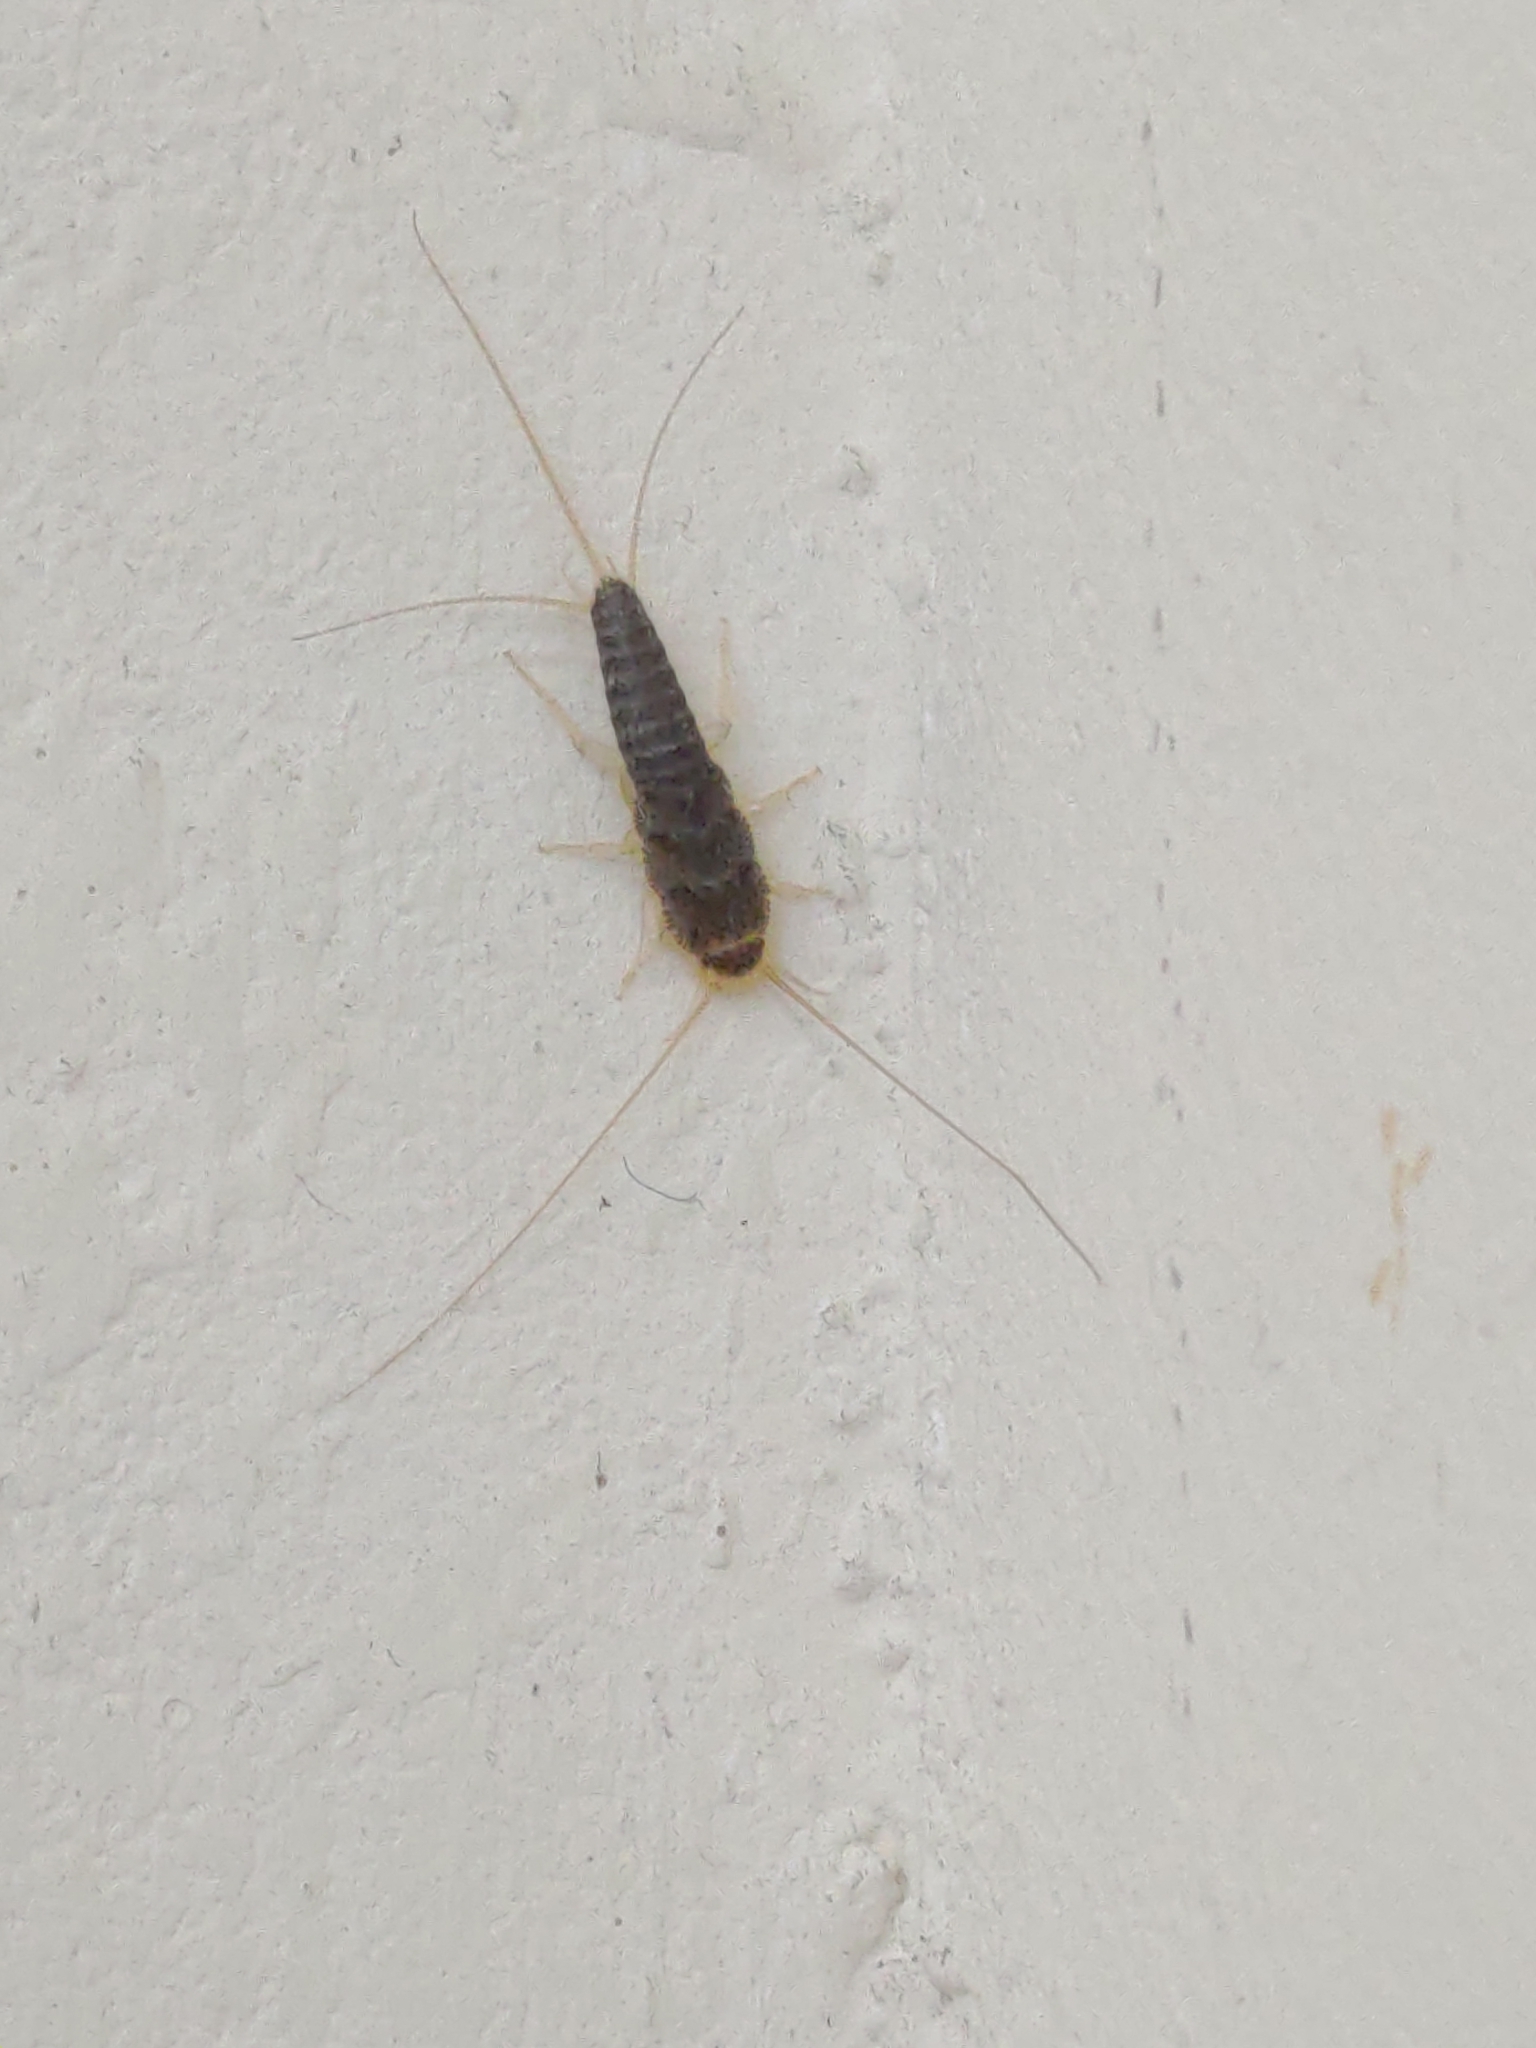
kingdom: Animalia
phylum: Arthropoda
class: Insecta
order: Zygentoma
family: Lepismatidae
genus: Ctenolepisma
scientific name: Ctenolepisma longicaudatum
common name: Silverfish
